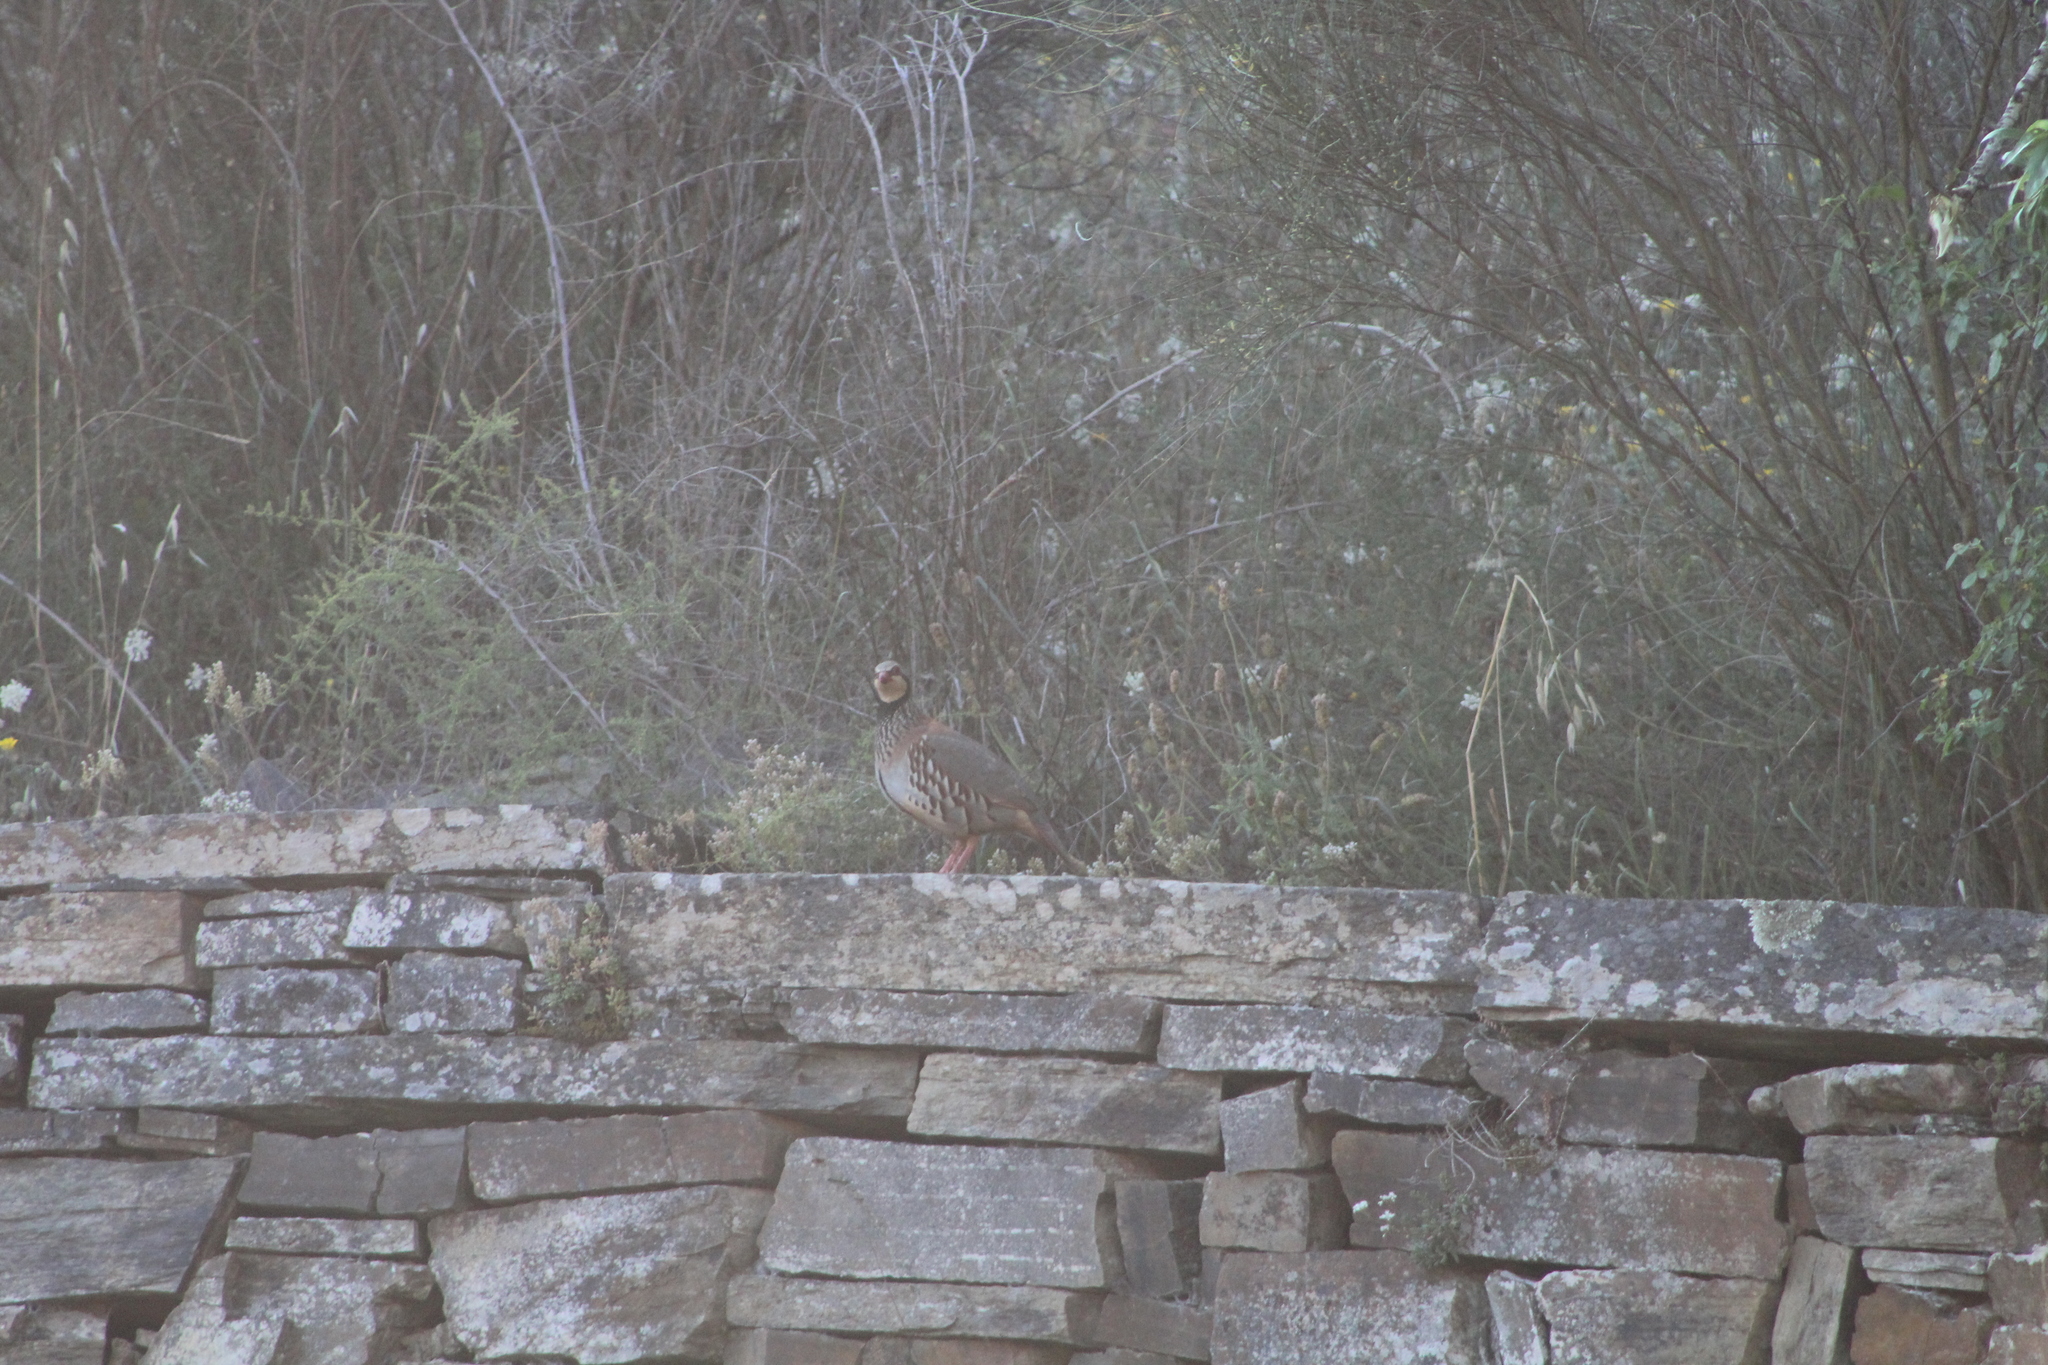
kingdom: Animalia
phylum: Chordata
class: Aves
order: Galliformes
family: Phasianidae
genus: Alectoris
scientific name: Alectoris rufa
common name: Red-legged partridge
